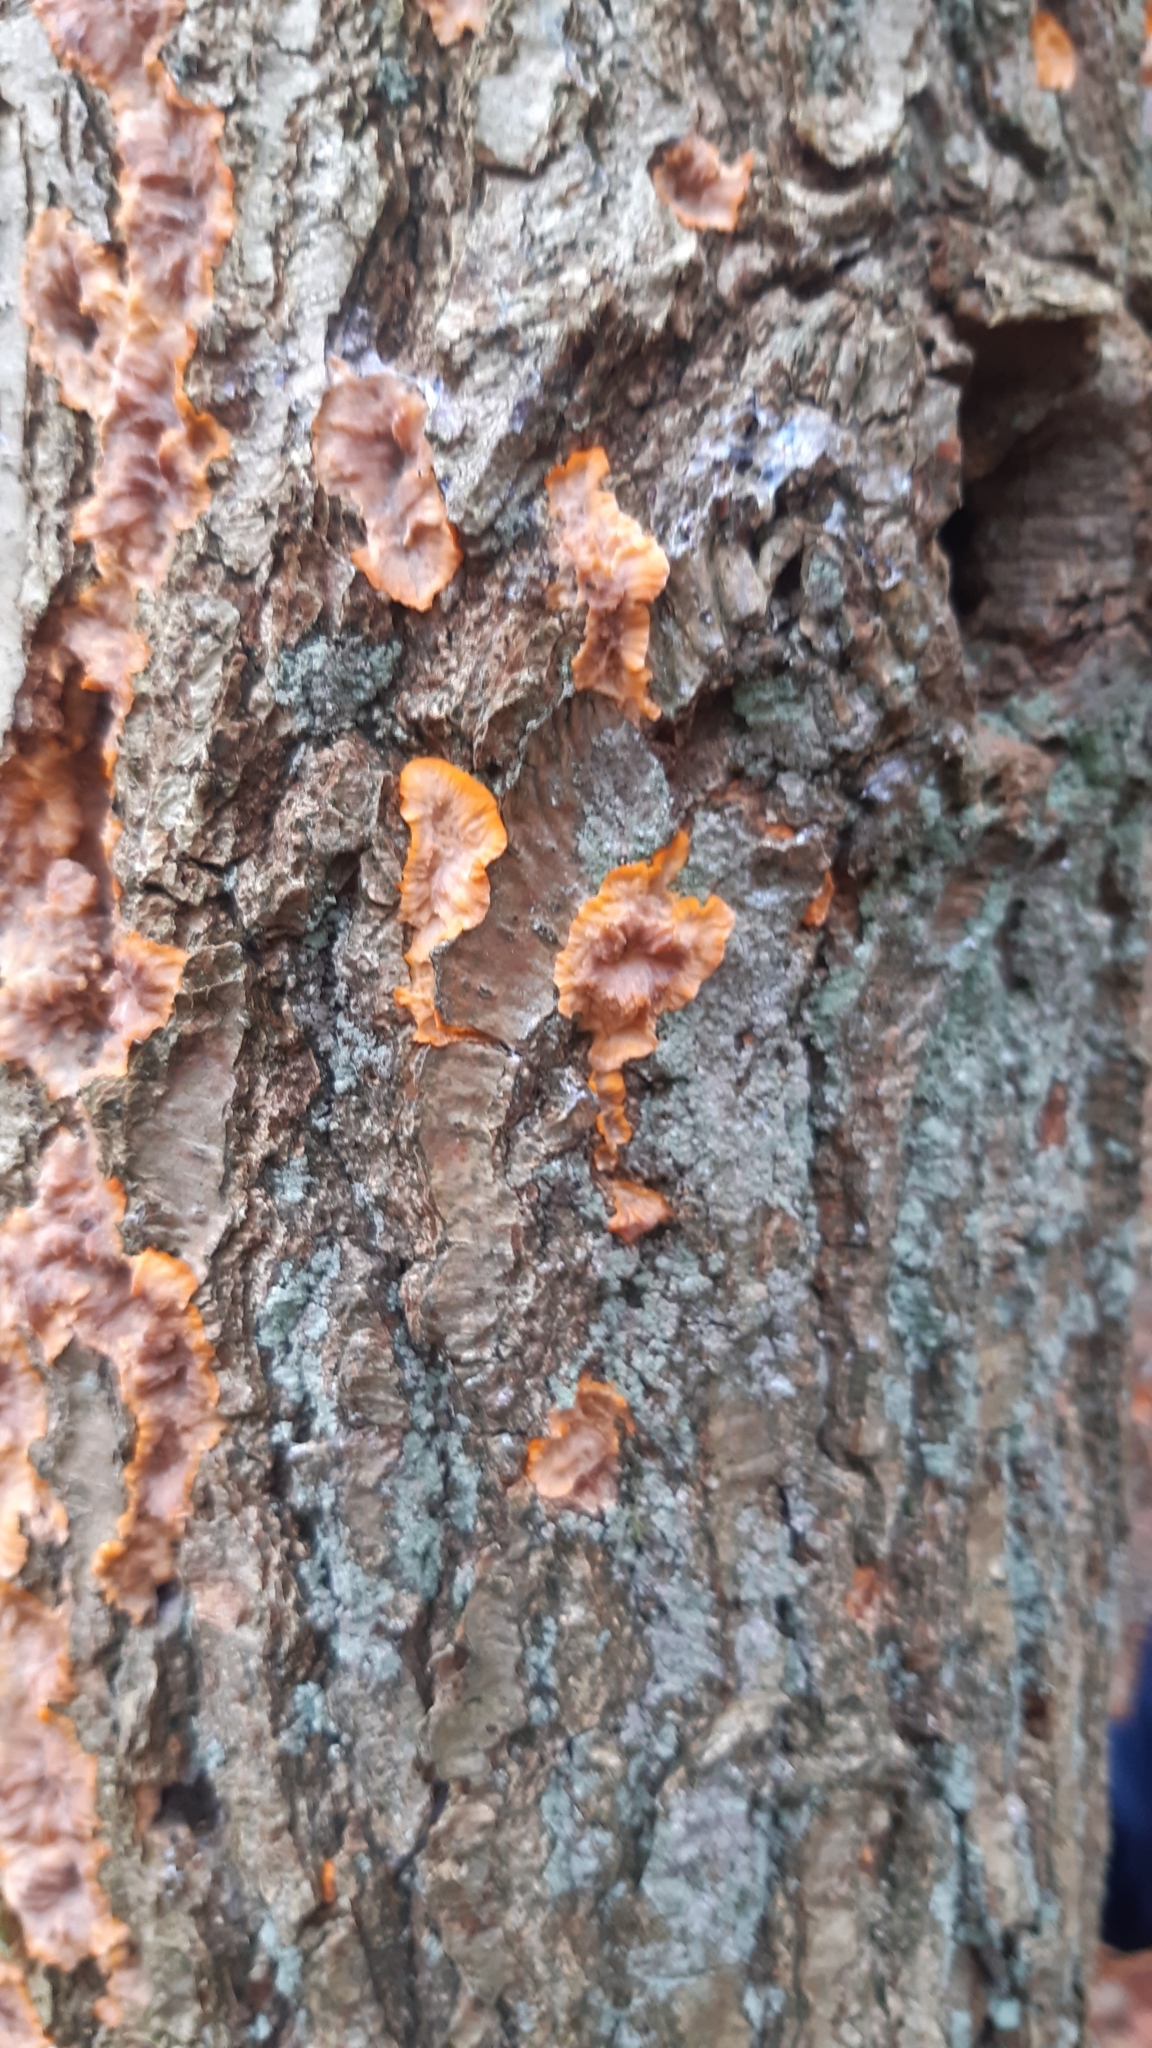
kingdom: Fungi
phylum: Basidiomycota
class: Agaricomycetes
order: Polyporales
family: Meruliaceae
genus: Phlebia
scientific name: Phlebia radiata
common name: Wrinkled crust
